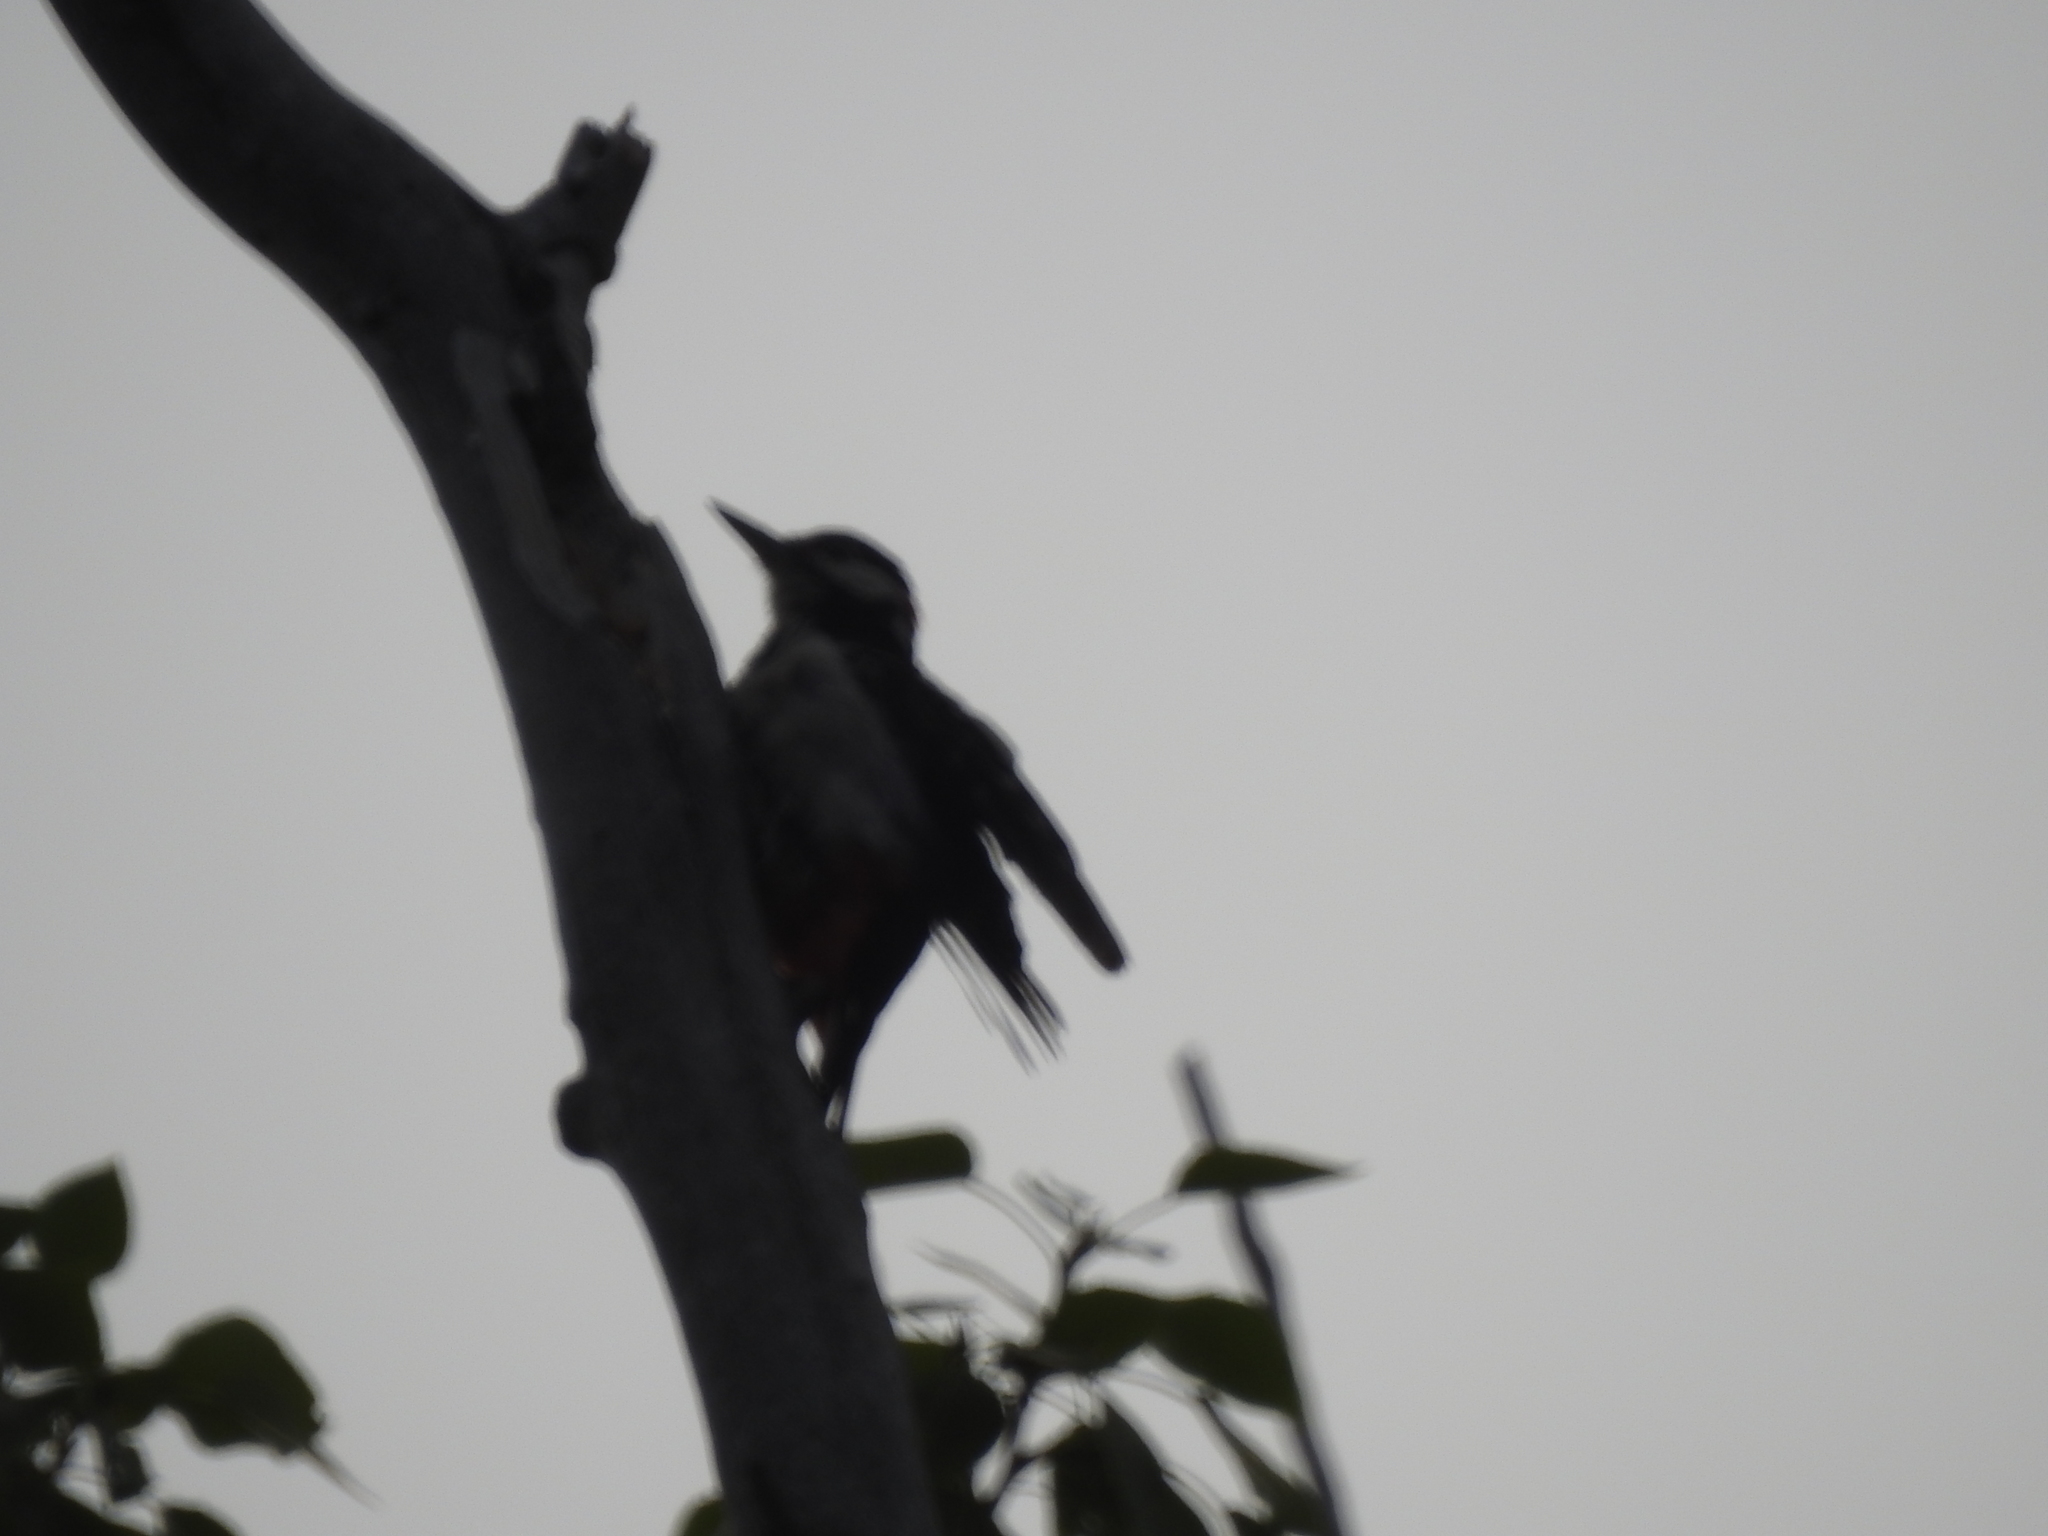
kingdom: Animalia
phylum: Chordata
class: Aves
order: Piciformes
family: Picidae
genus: Dendrocopos
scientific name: Dendrocopos major
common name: Great spotted woodpecker
